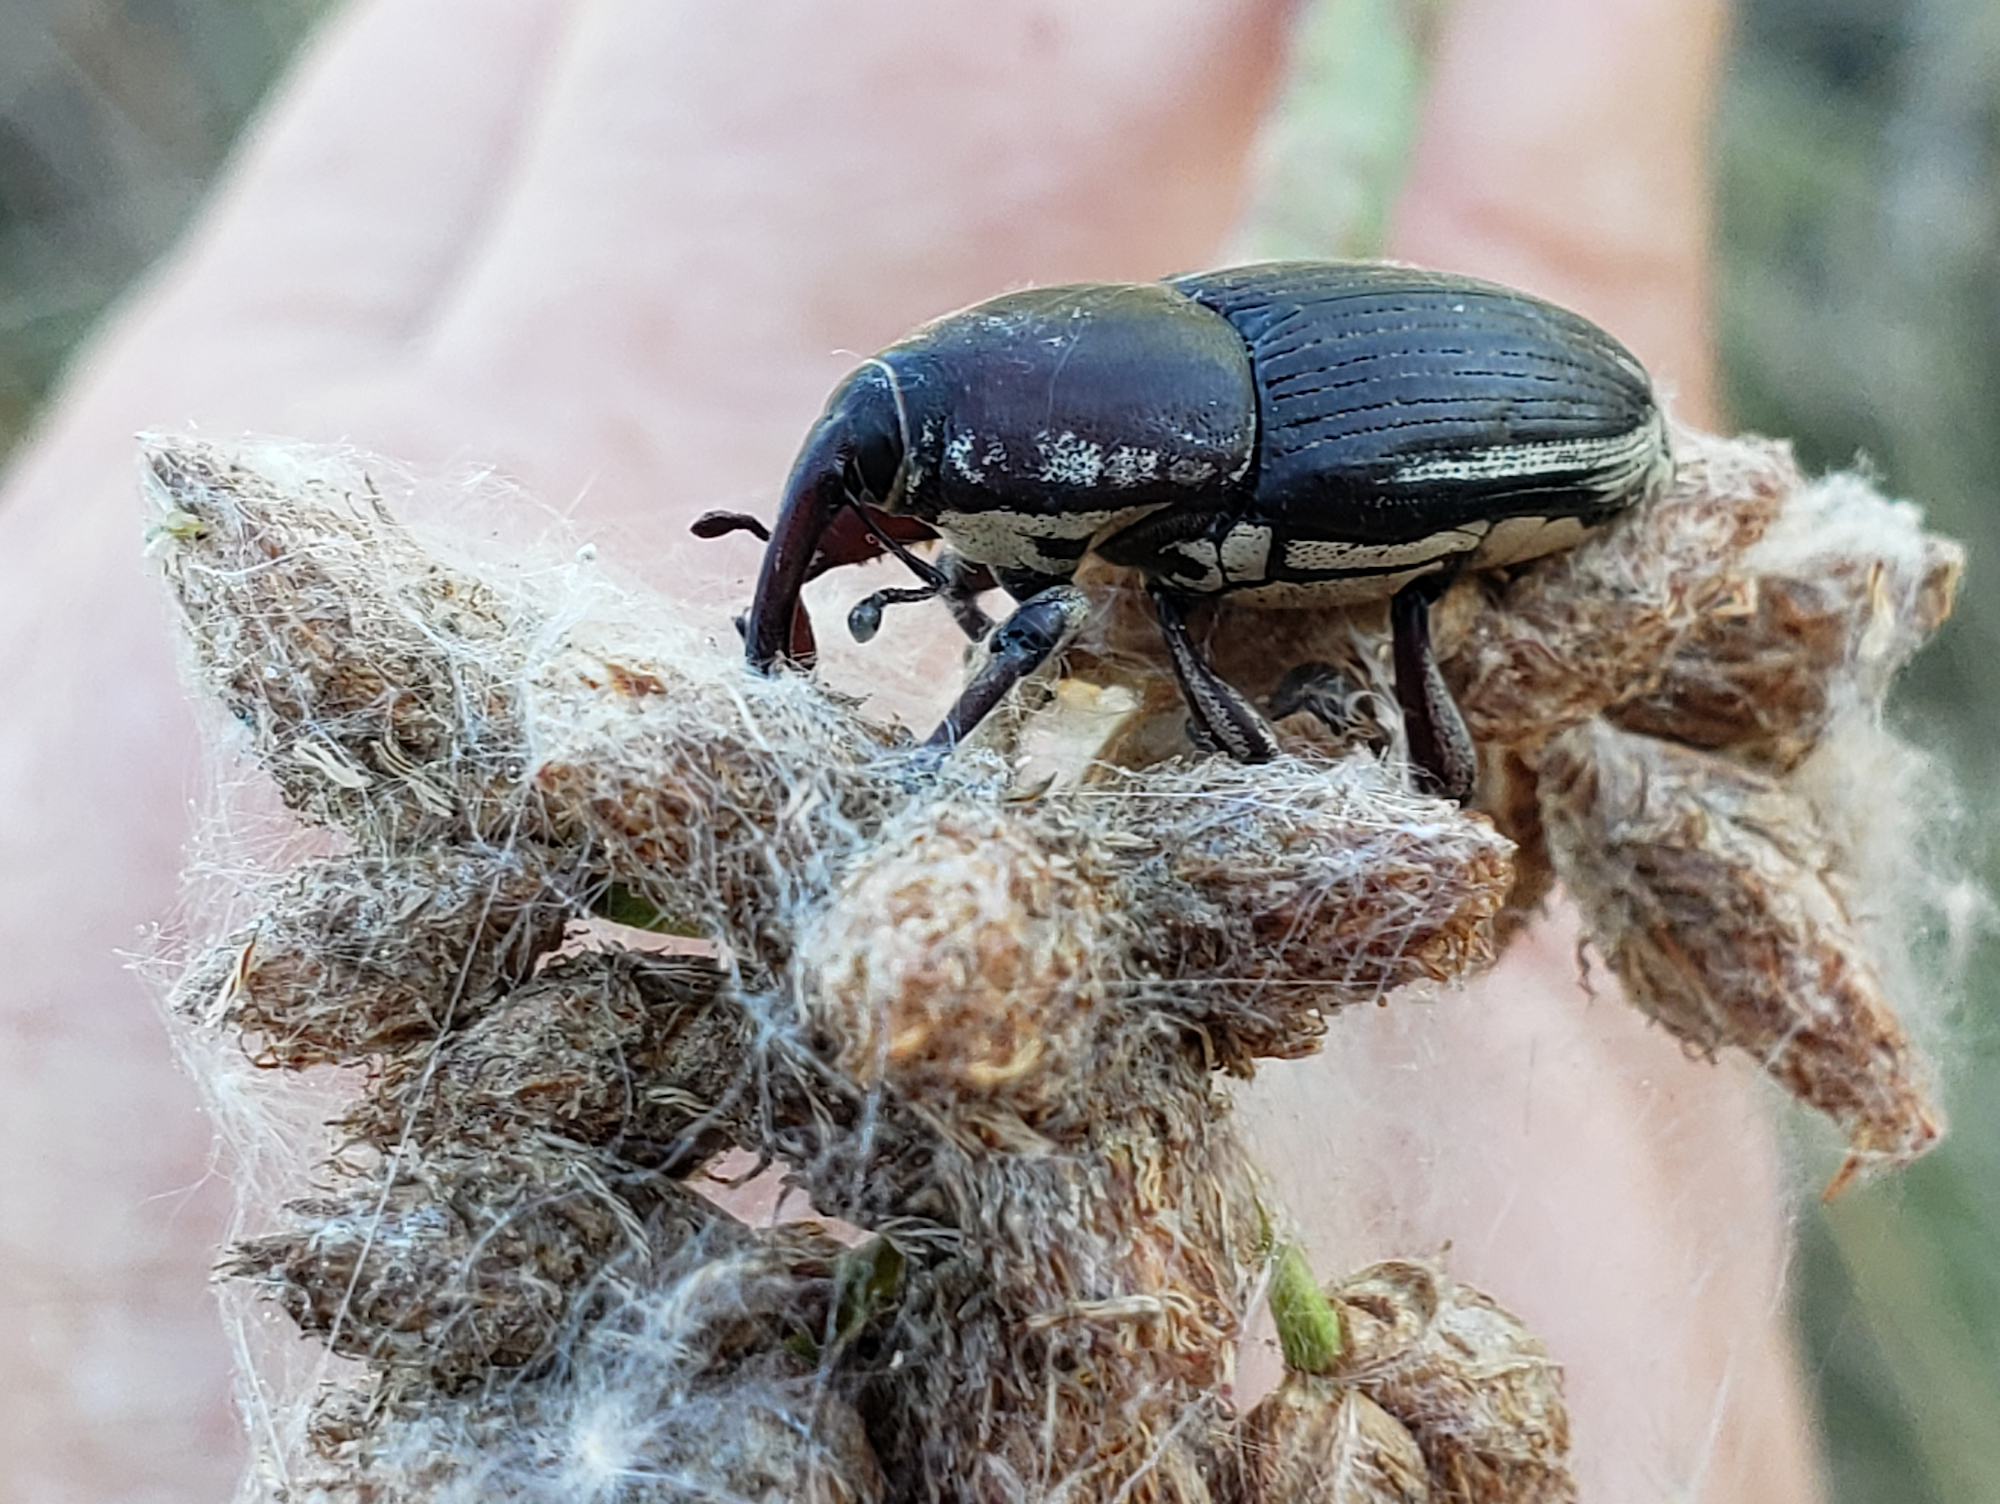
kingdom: Animalia
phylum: Arthropoda
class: Insecta
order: Coleoptera
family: Dryophthoridae
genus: Sphenophorus
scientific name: Sphenophorus aequalis
